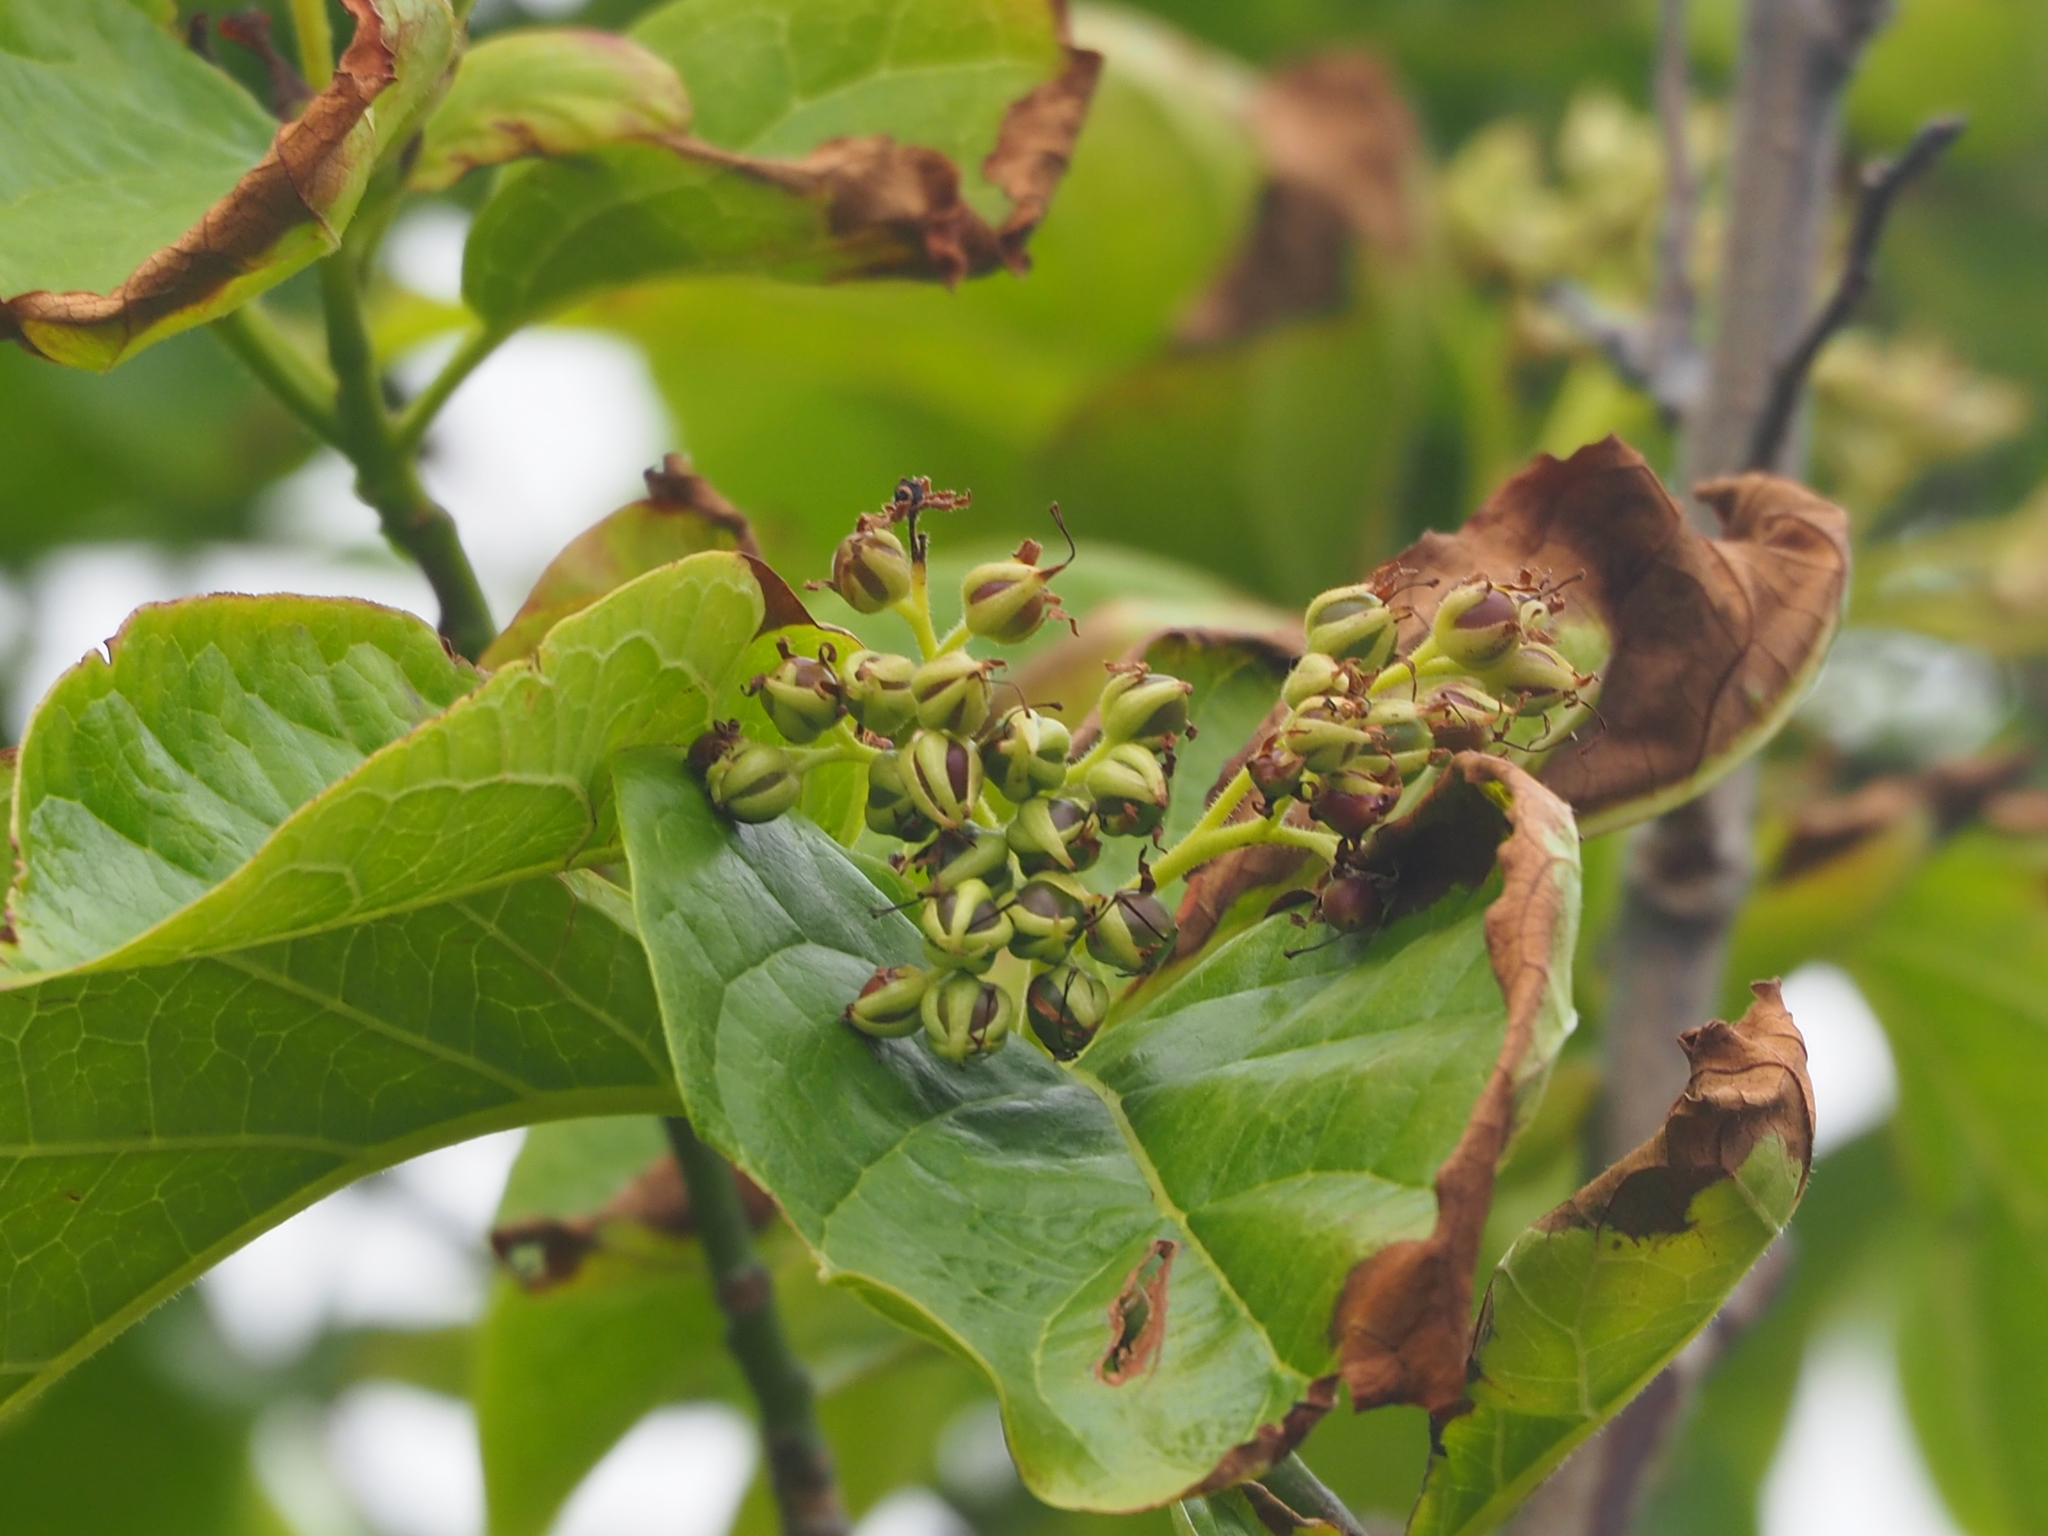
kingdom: Plantae
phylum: Tracheophyta
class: Magnoliopsida
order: Boraginales
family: Ehretiaceae
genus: Ehretia
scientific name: Ehretia resinosa
